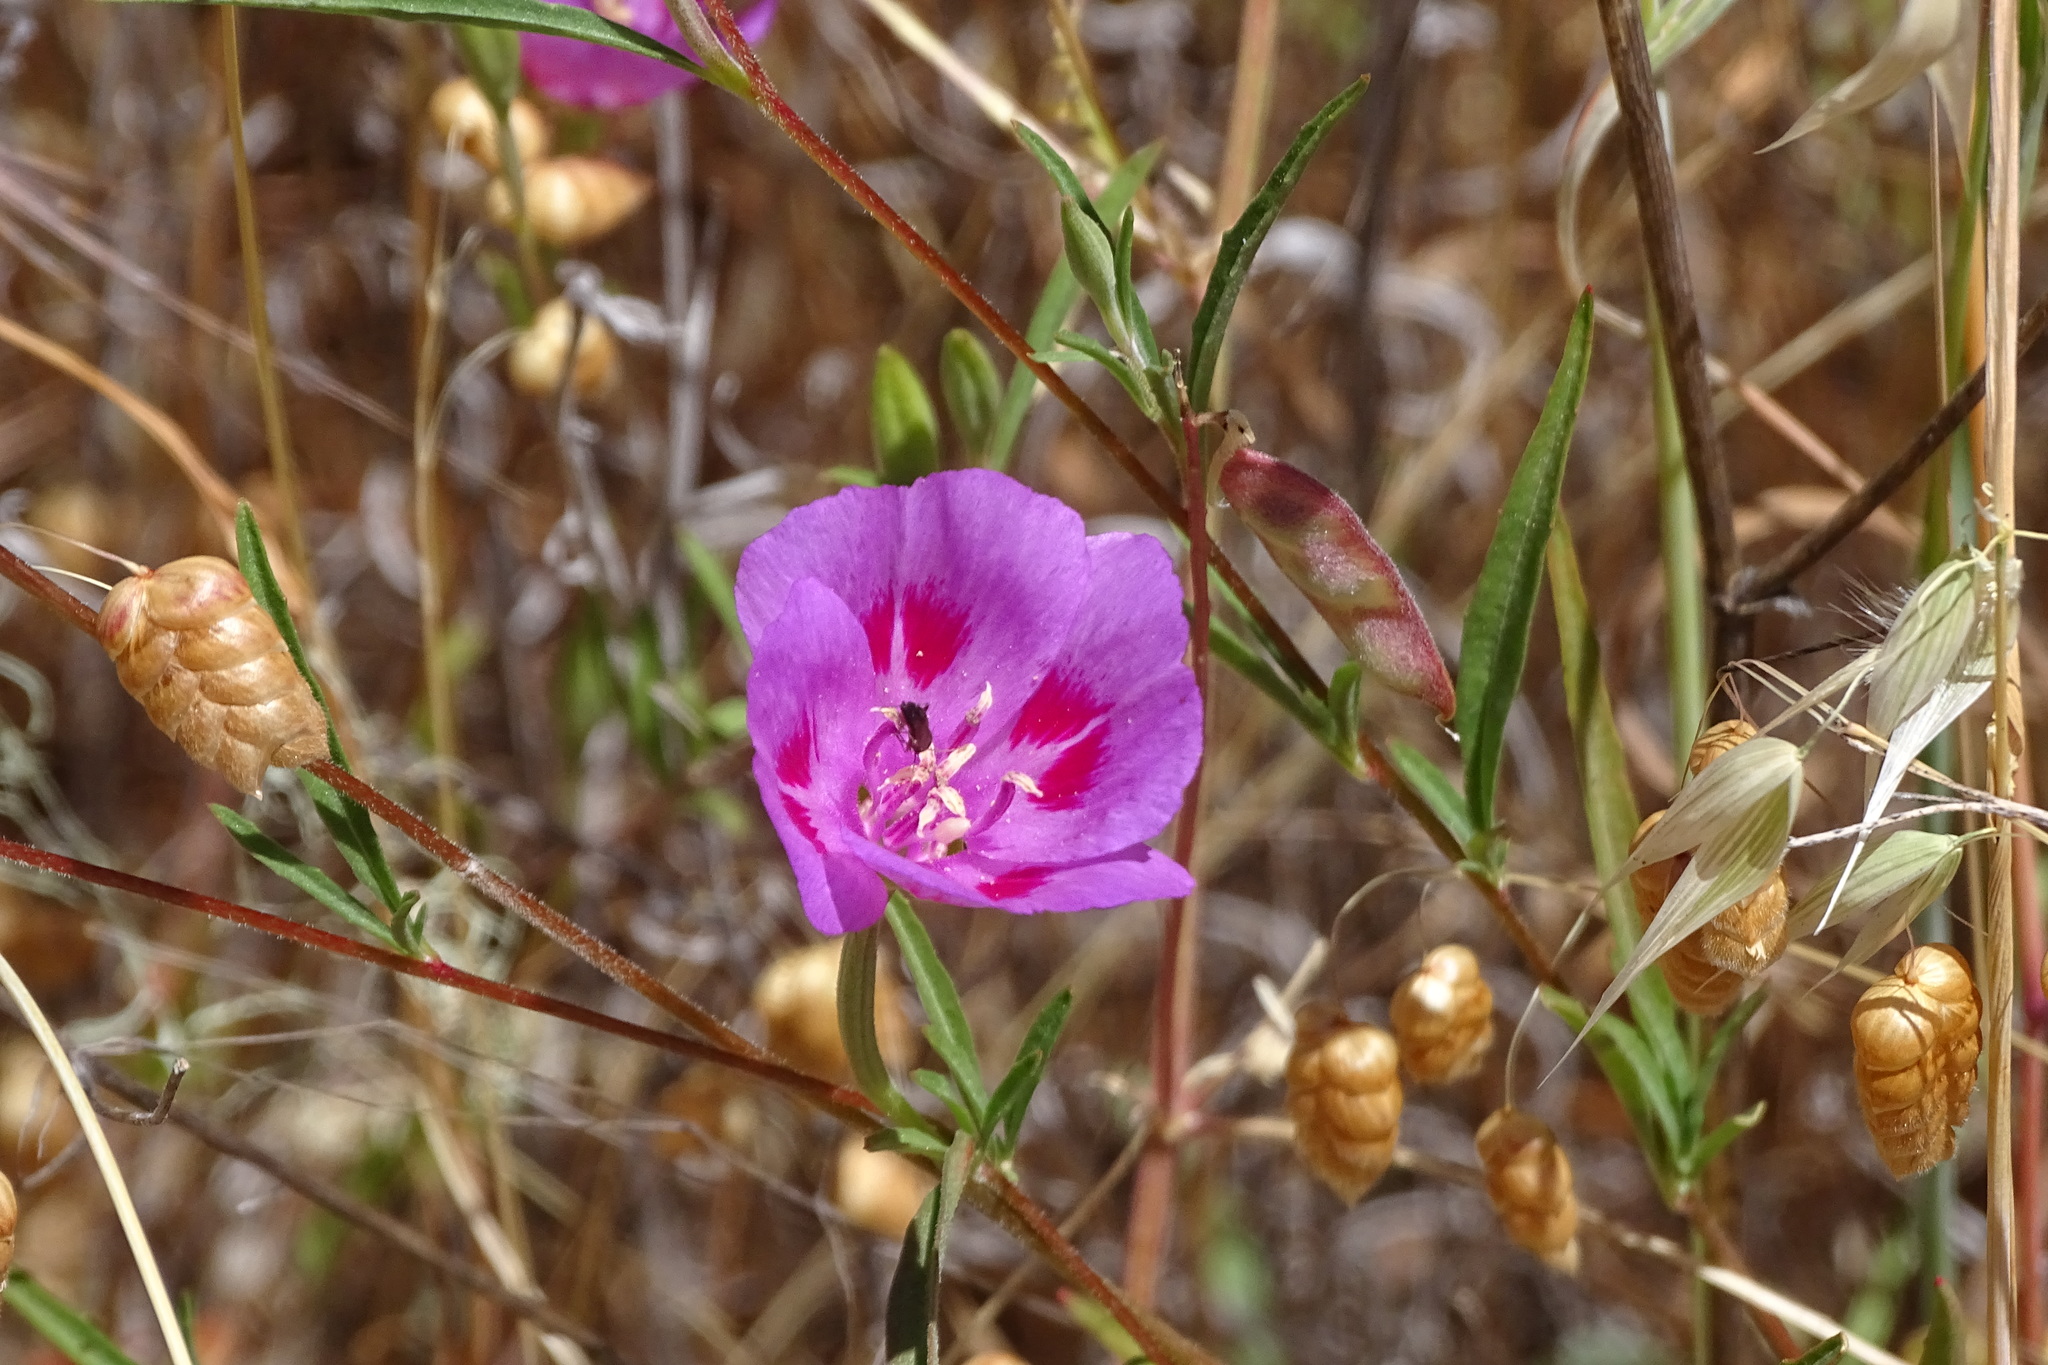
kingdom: Plantae
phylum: Tracheophyta
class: Magnoliopsida
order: Myrtales
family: Onagraceae
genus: Clarkia
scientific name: Clarkia amoena
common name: Godetia
